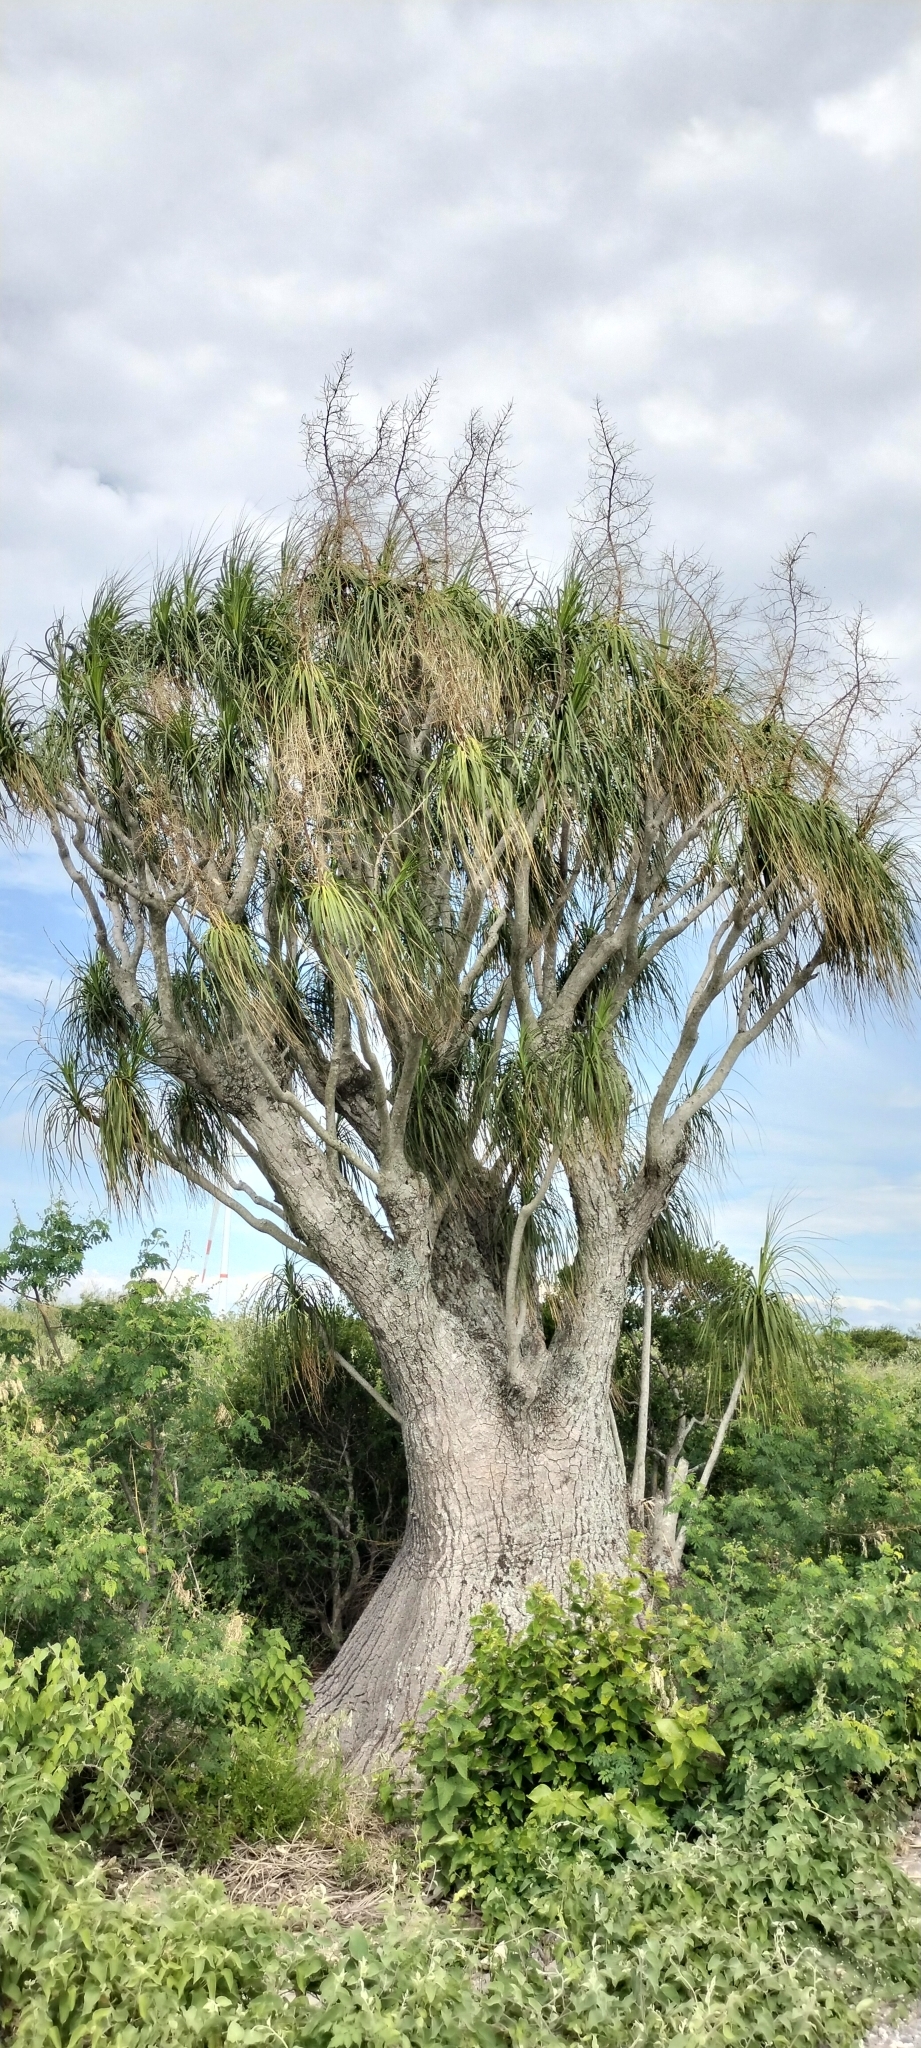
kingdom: Plantae
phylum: Tracheophyta
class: Liliopsida
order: Asparagales
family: Asparagaceae
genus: Beaucarnea
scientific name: Beaucarnea recurvata
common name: Stripy  ponytail
